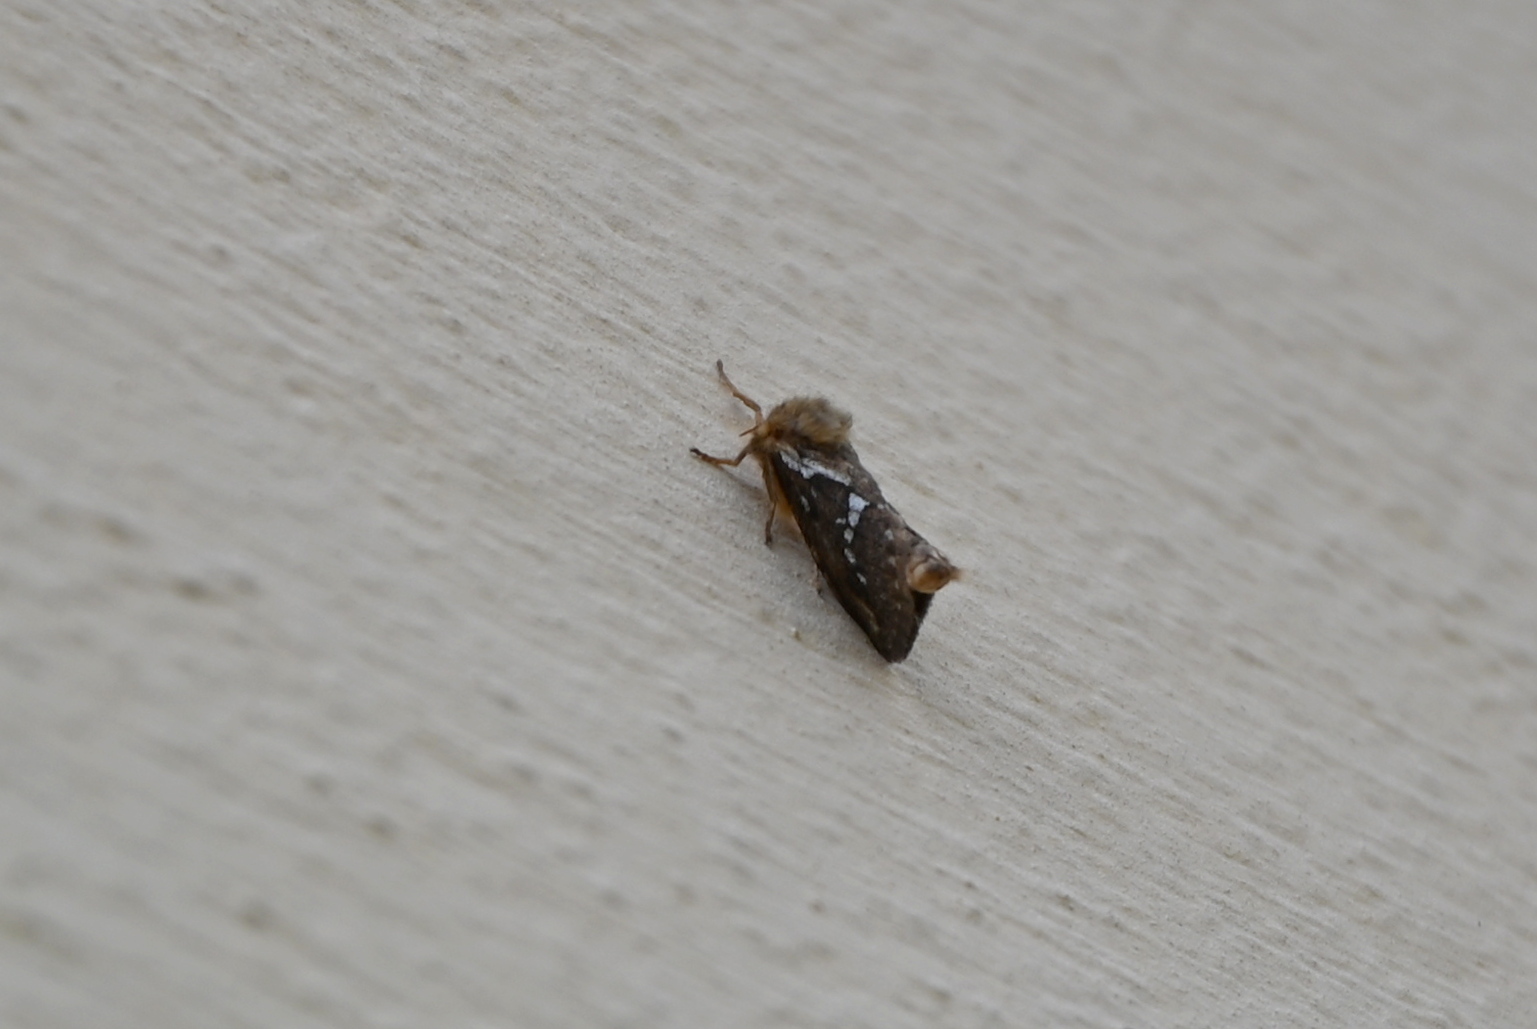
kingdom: Animalia
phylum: Arthropoda
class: Insecta
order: Lepidoptera
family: Hepialidae
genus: Korscheltellus
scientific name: Korscheltellus lupulina
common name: Common swift
